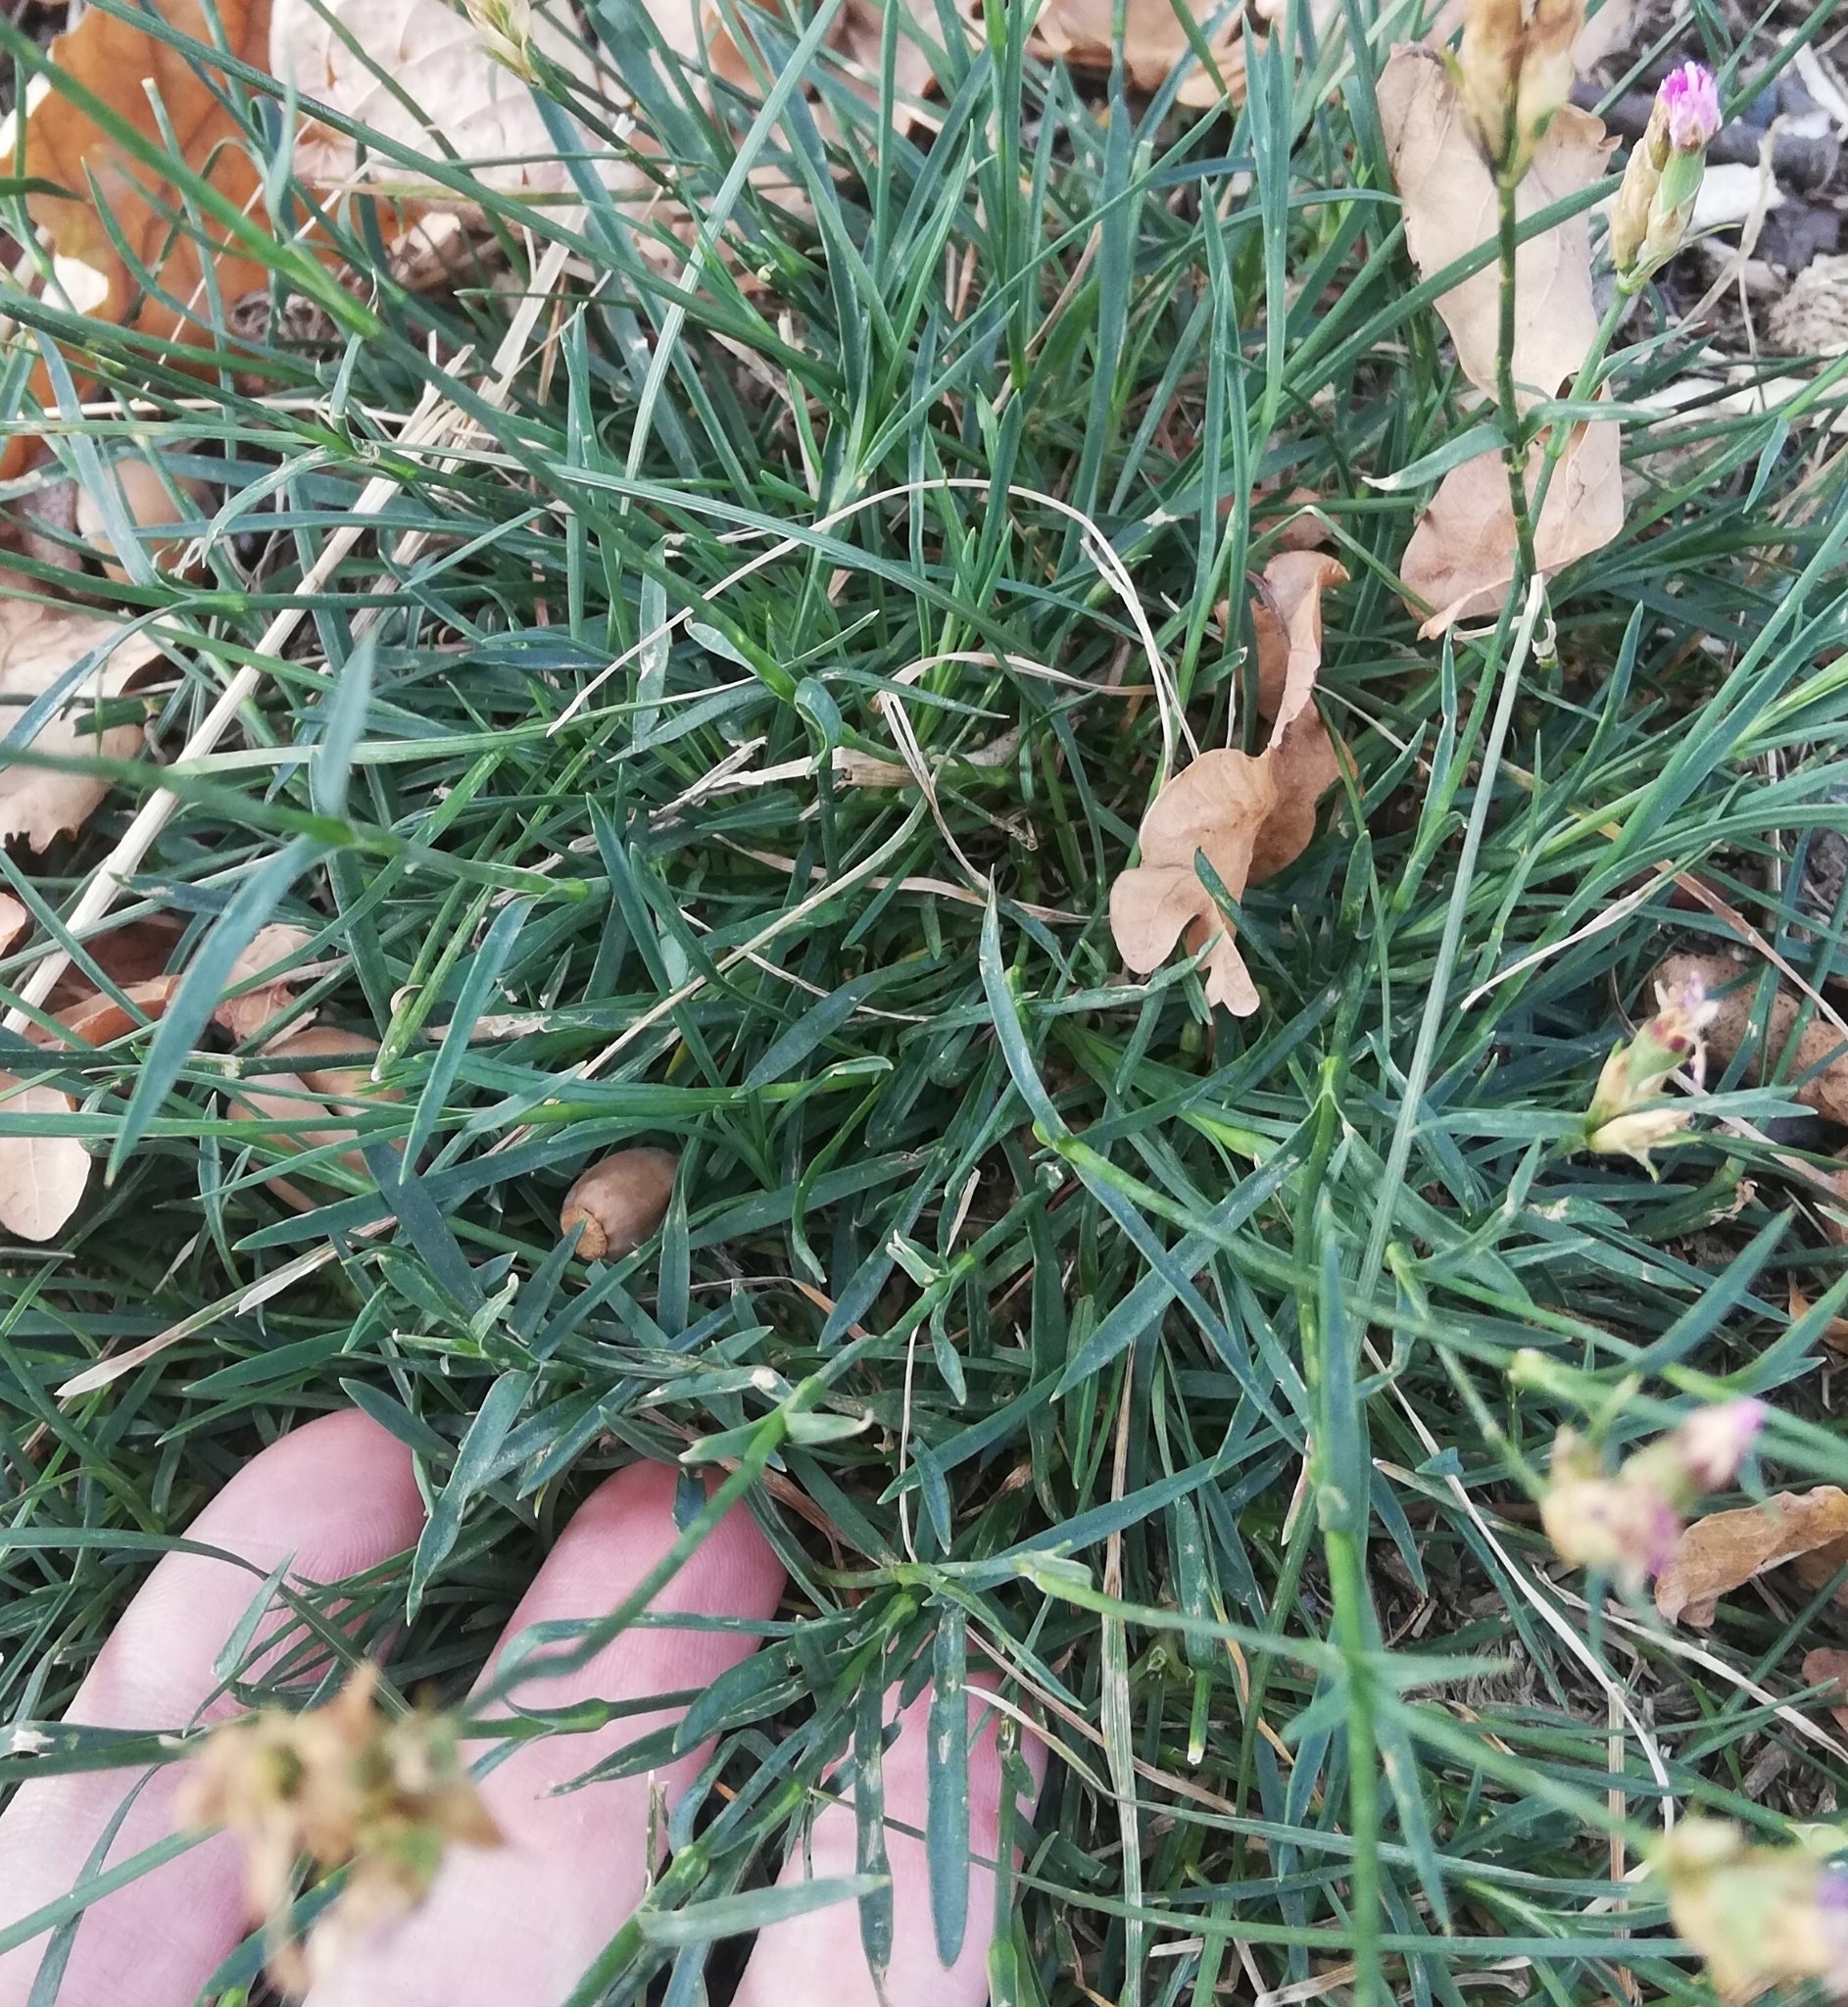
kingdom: Plantae
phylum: Tracheophyta
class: Magnoliopsida
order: Caryophyllales
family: Caryophyllaceae
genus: Dianthus
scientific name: Dianthus carthusianorum
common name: Carthusian pink
